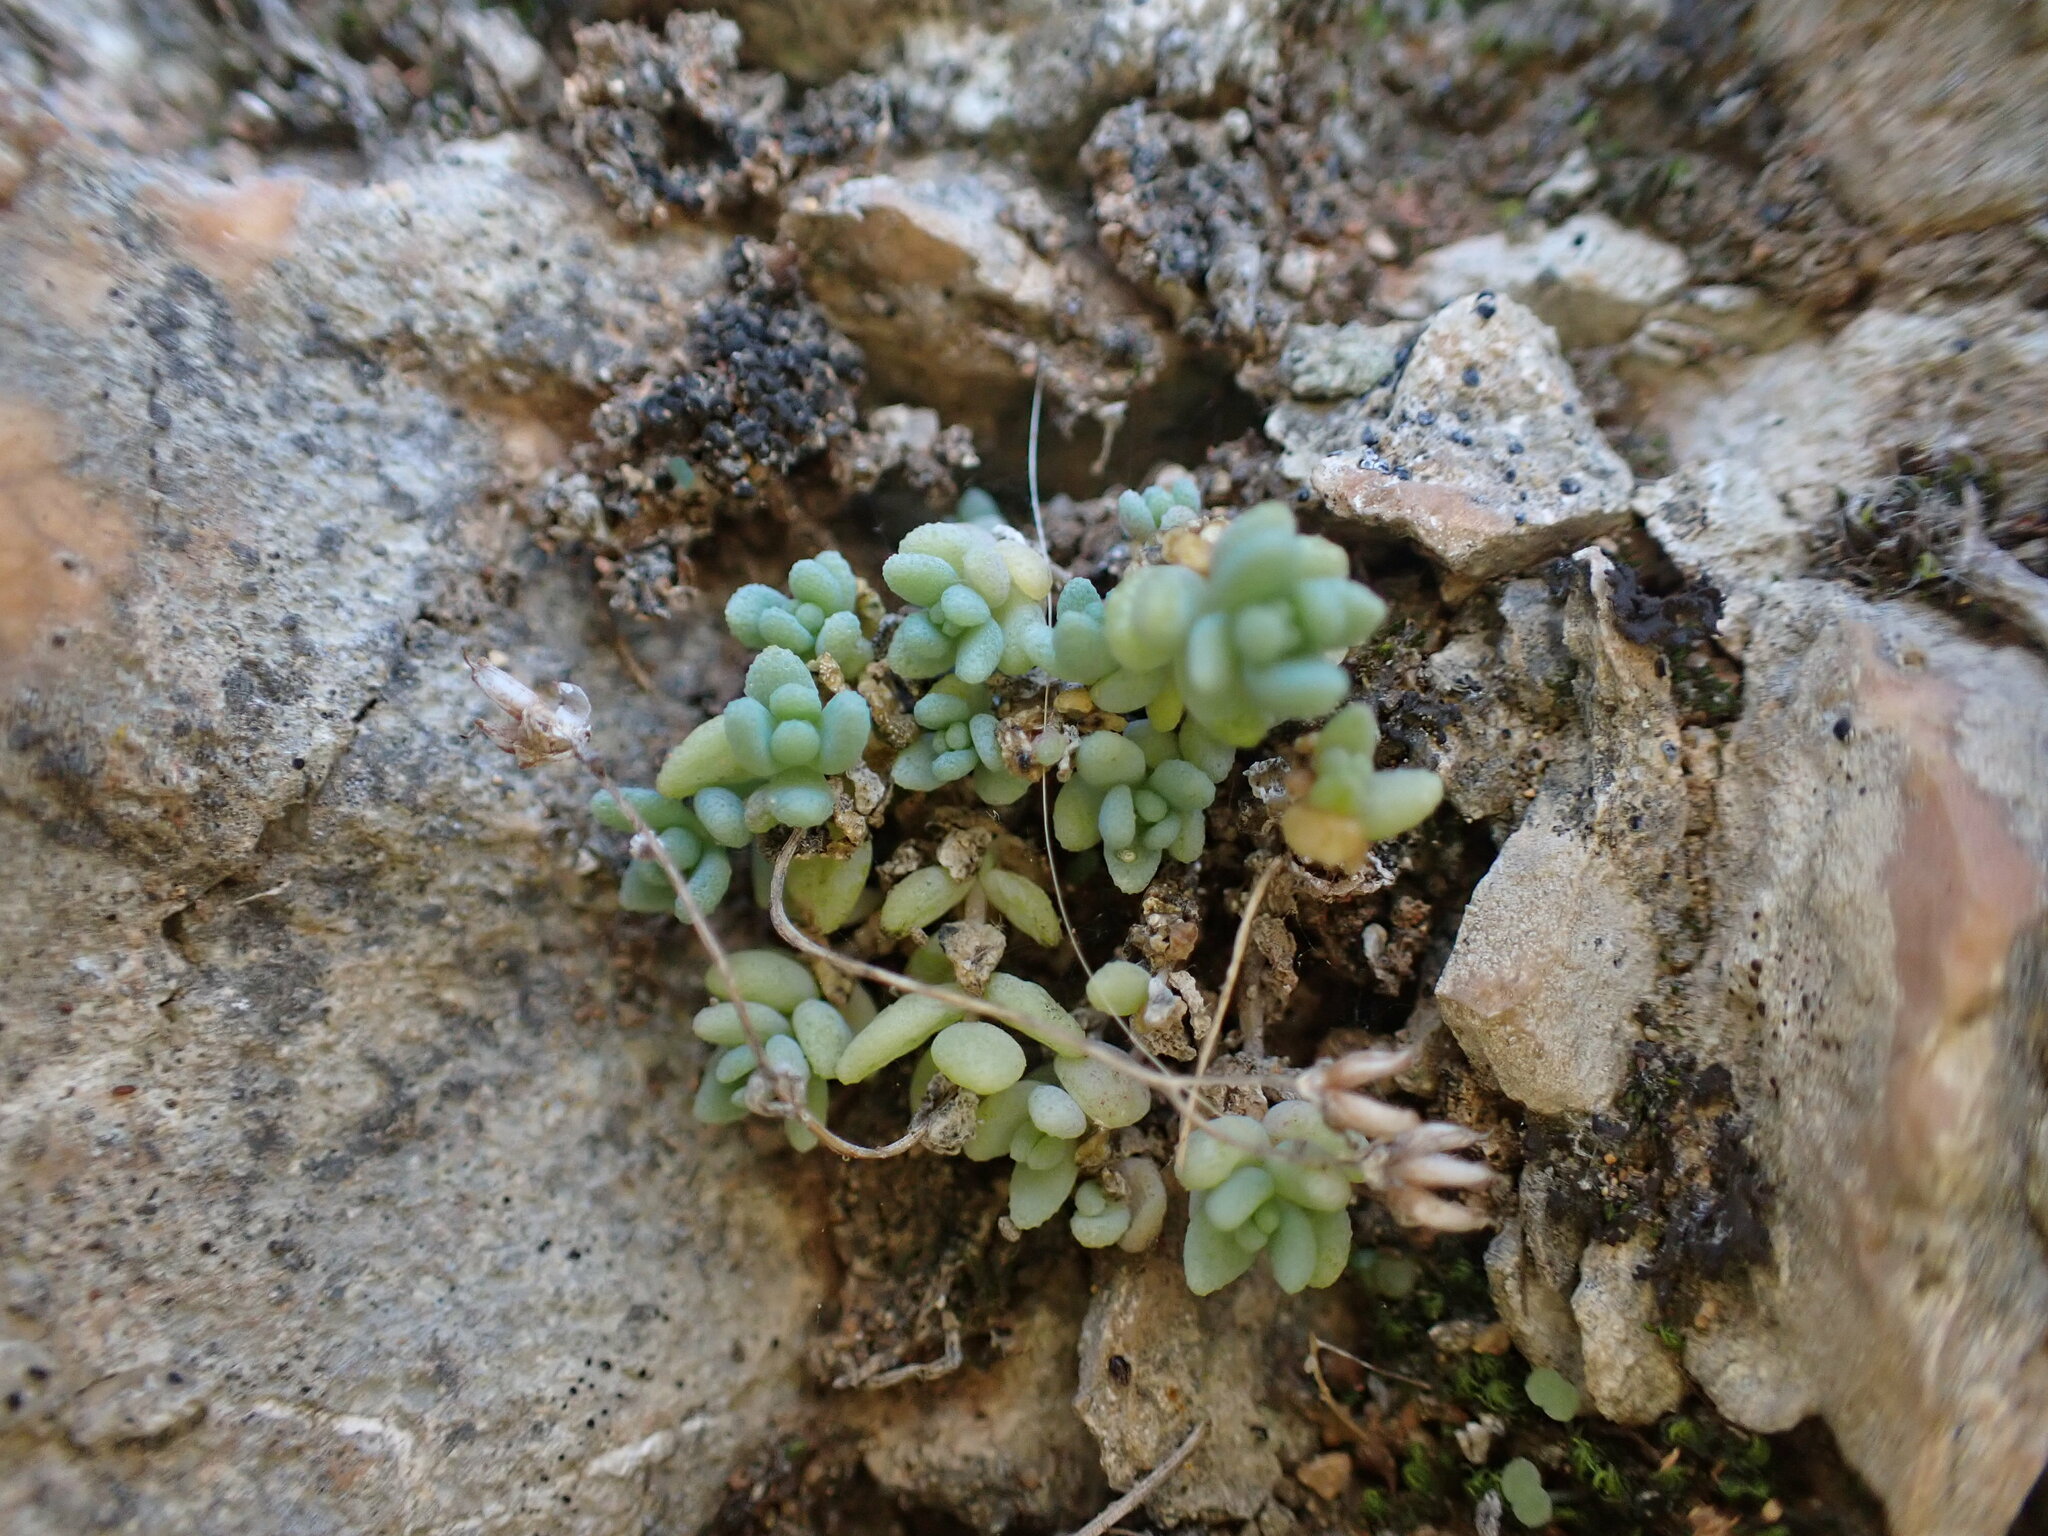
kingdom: Plantae
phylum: Tracheophyta
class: Magnoliopsida
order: Saxifragales
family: Crassulaceae
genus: Sedum
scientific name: Sedum dasyphyllum
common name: Thick-leaf stonecrop
